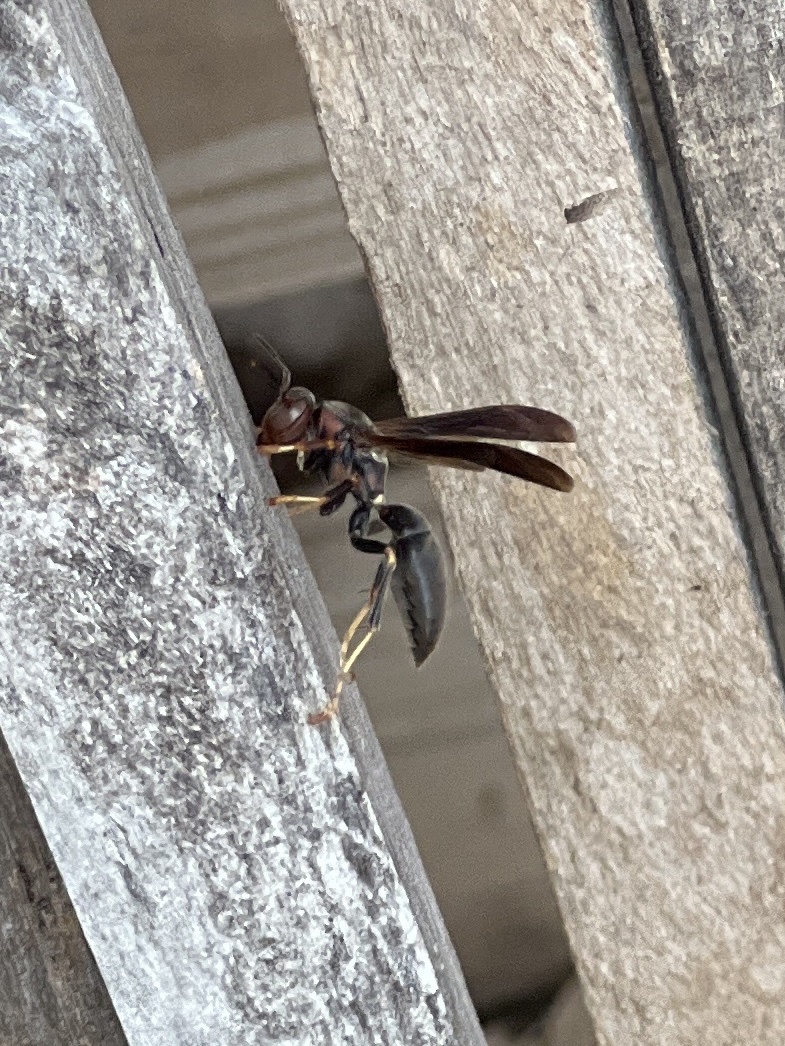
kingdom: Animalia
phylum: Arthropoda
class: Insecta
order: Hymenoptera
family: Eumenidae
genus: Polistes
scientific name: Polistes metricus
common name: Metric paper wasp
